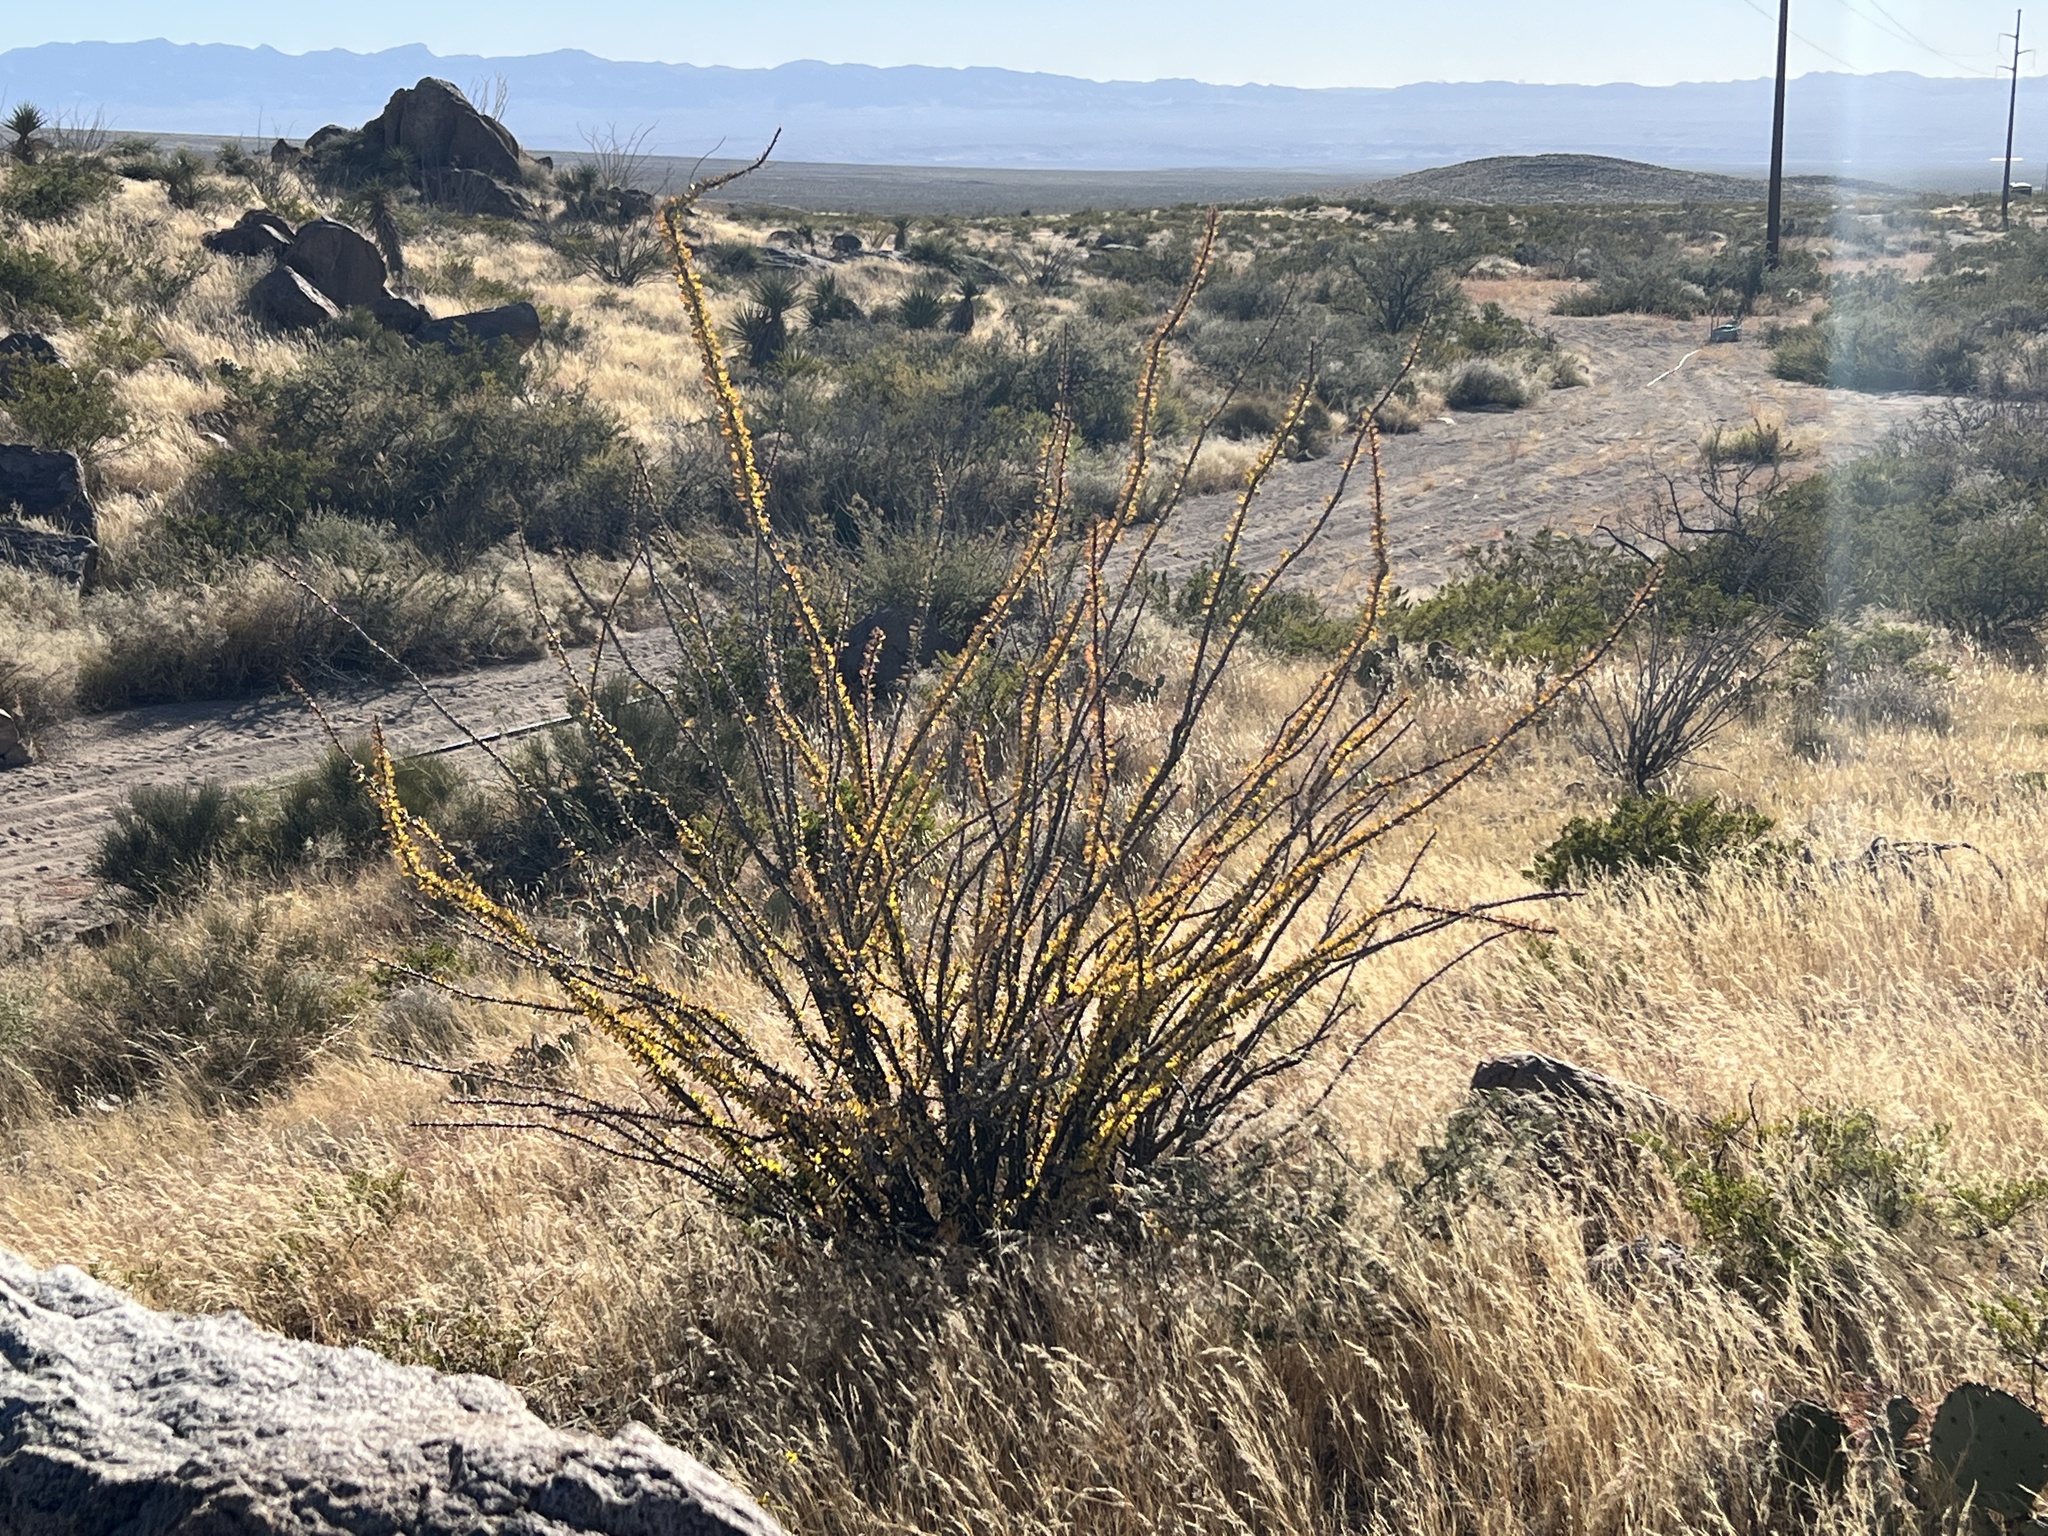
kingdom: Plantae
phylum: Tracheophyta
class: Magnoliopsida
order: Ericales
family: Fouquieriaceae
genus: Fouquieria
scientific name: Fouquieria splendens
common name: Vine-cactus
